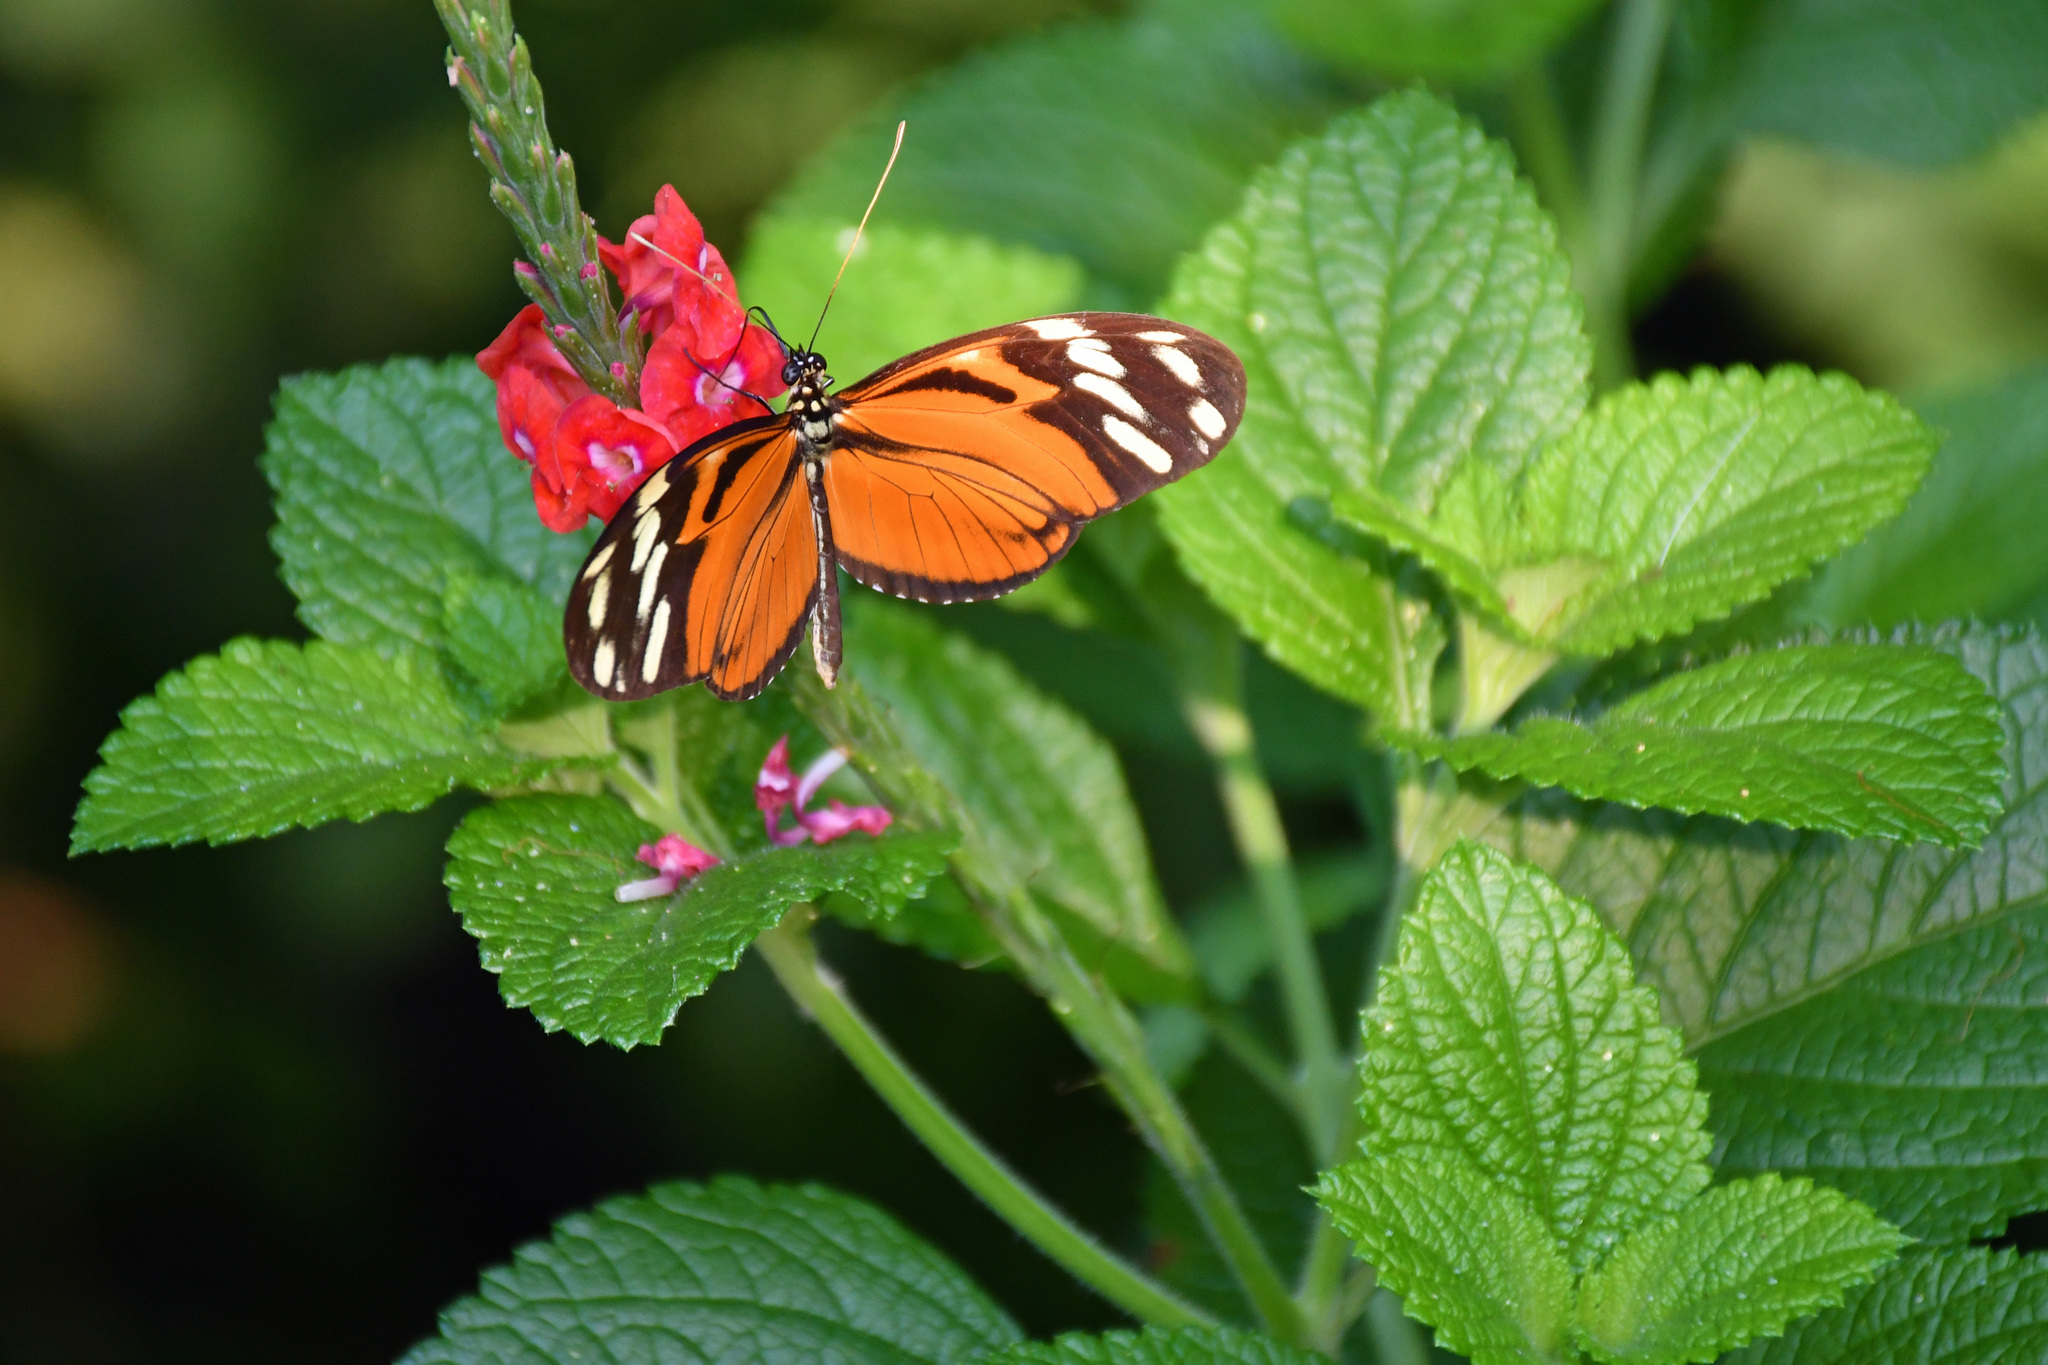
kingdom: Animalia
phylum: Arthropoda
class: Insecta
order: Lepidoptera
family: Nymphalidae
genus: Heliconius
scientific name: Heliconius ismenius
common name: Ismenius tiger
